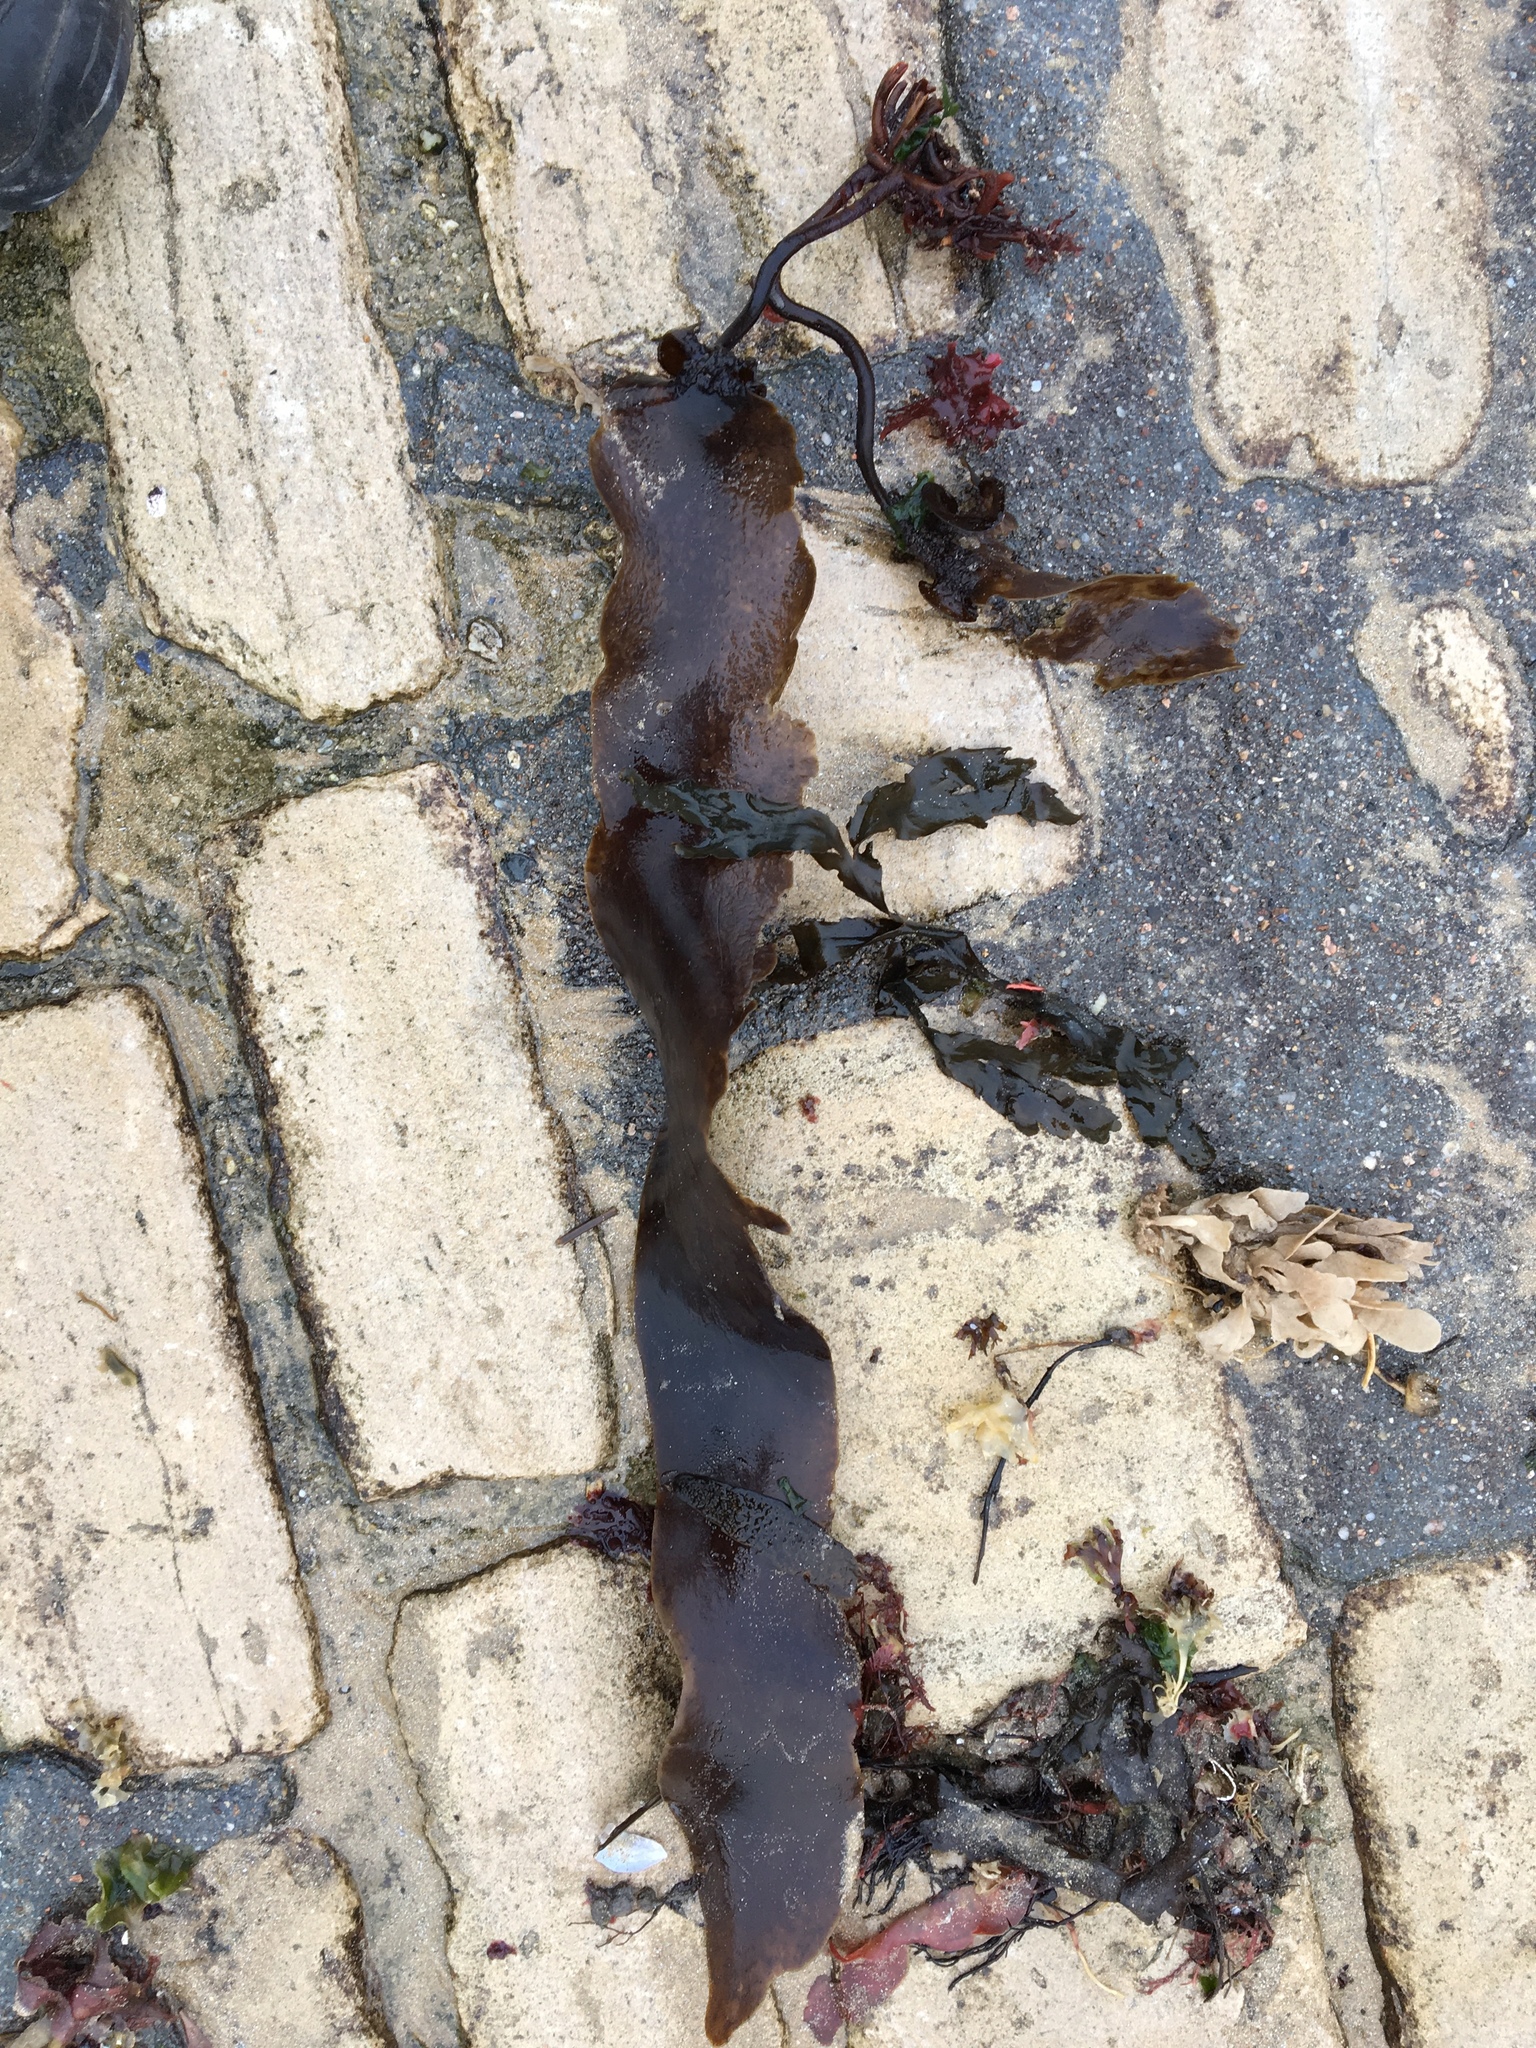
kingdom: Chromista
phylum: Ochrophyta
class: Phaeophyceae
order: Laminariales
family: Laminariaceae
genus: Saccharina
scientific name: Saccharina latissima
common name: Poor man's weather glass
